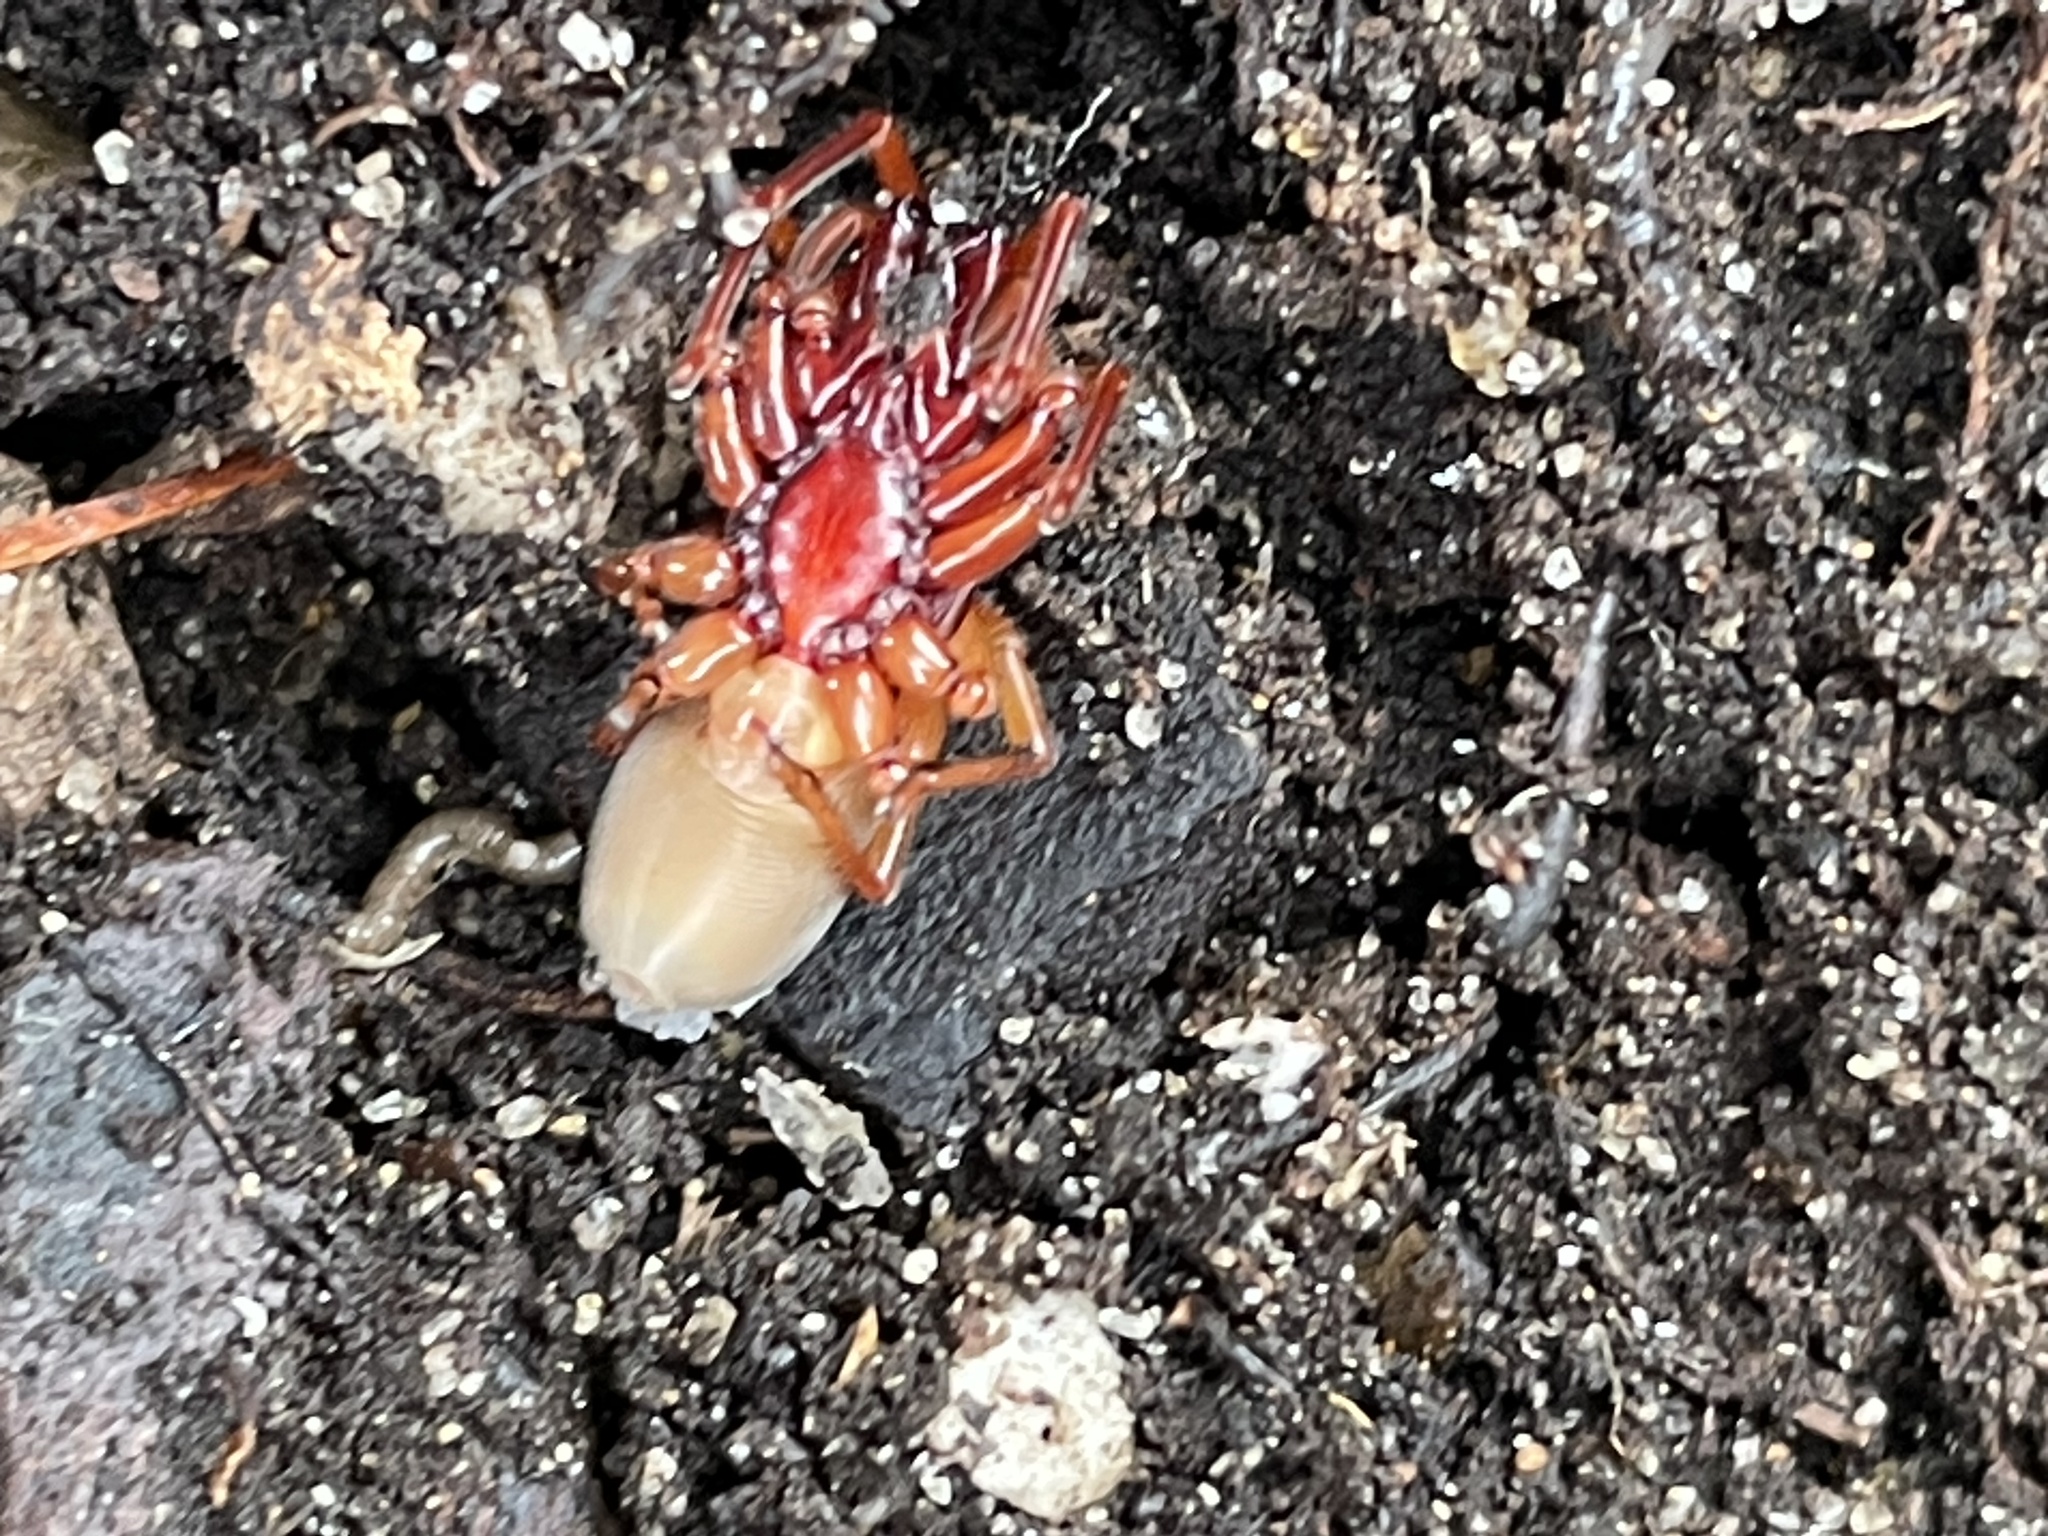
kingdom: Animalia
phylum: Arthropoda
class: Arachnida
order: Araneae
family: Dysderidae
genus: Dysdera
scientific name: Dysdera crocata
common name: Woodlouse spider
